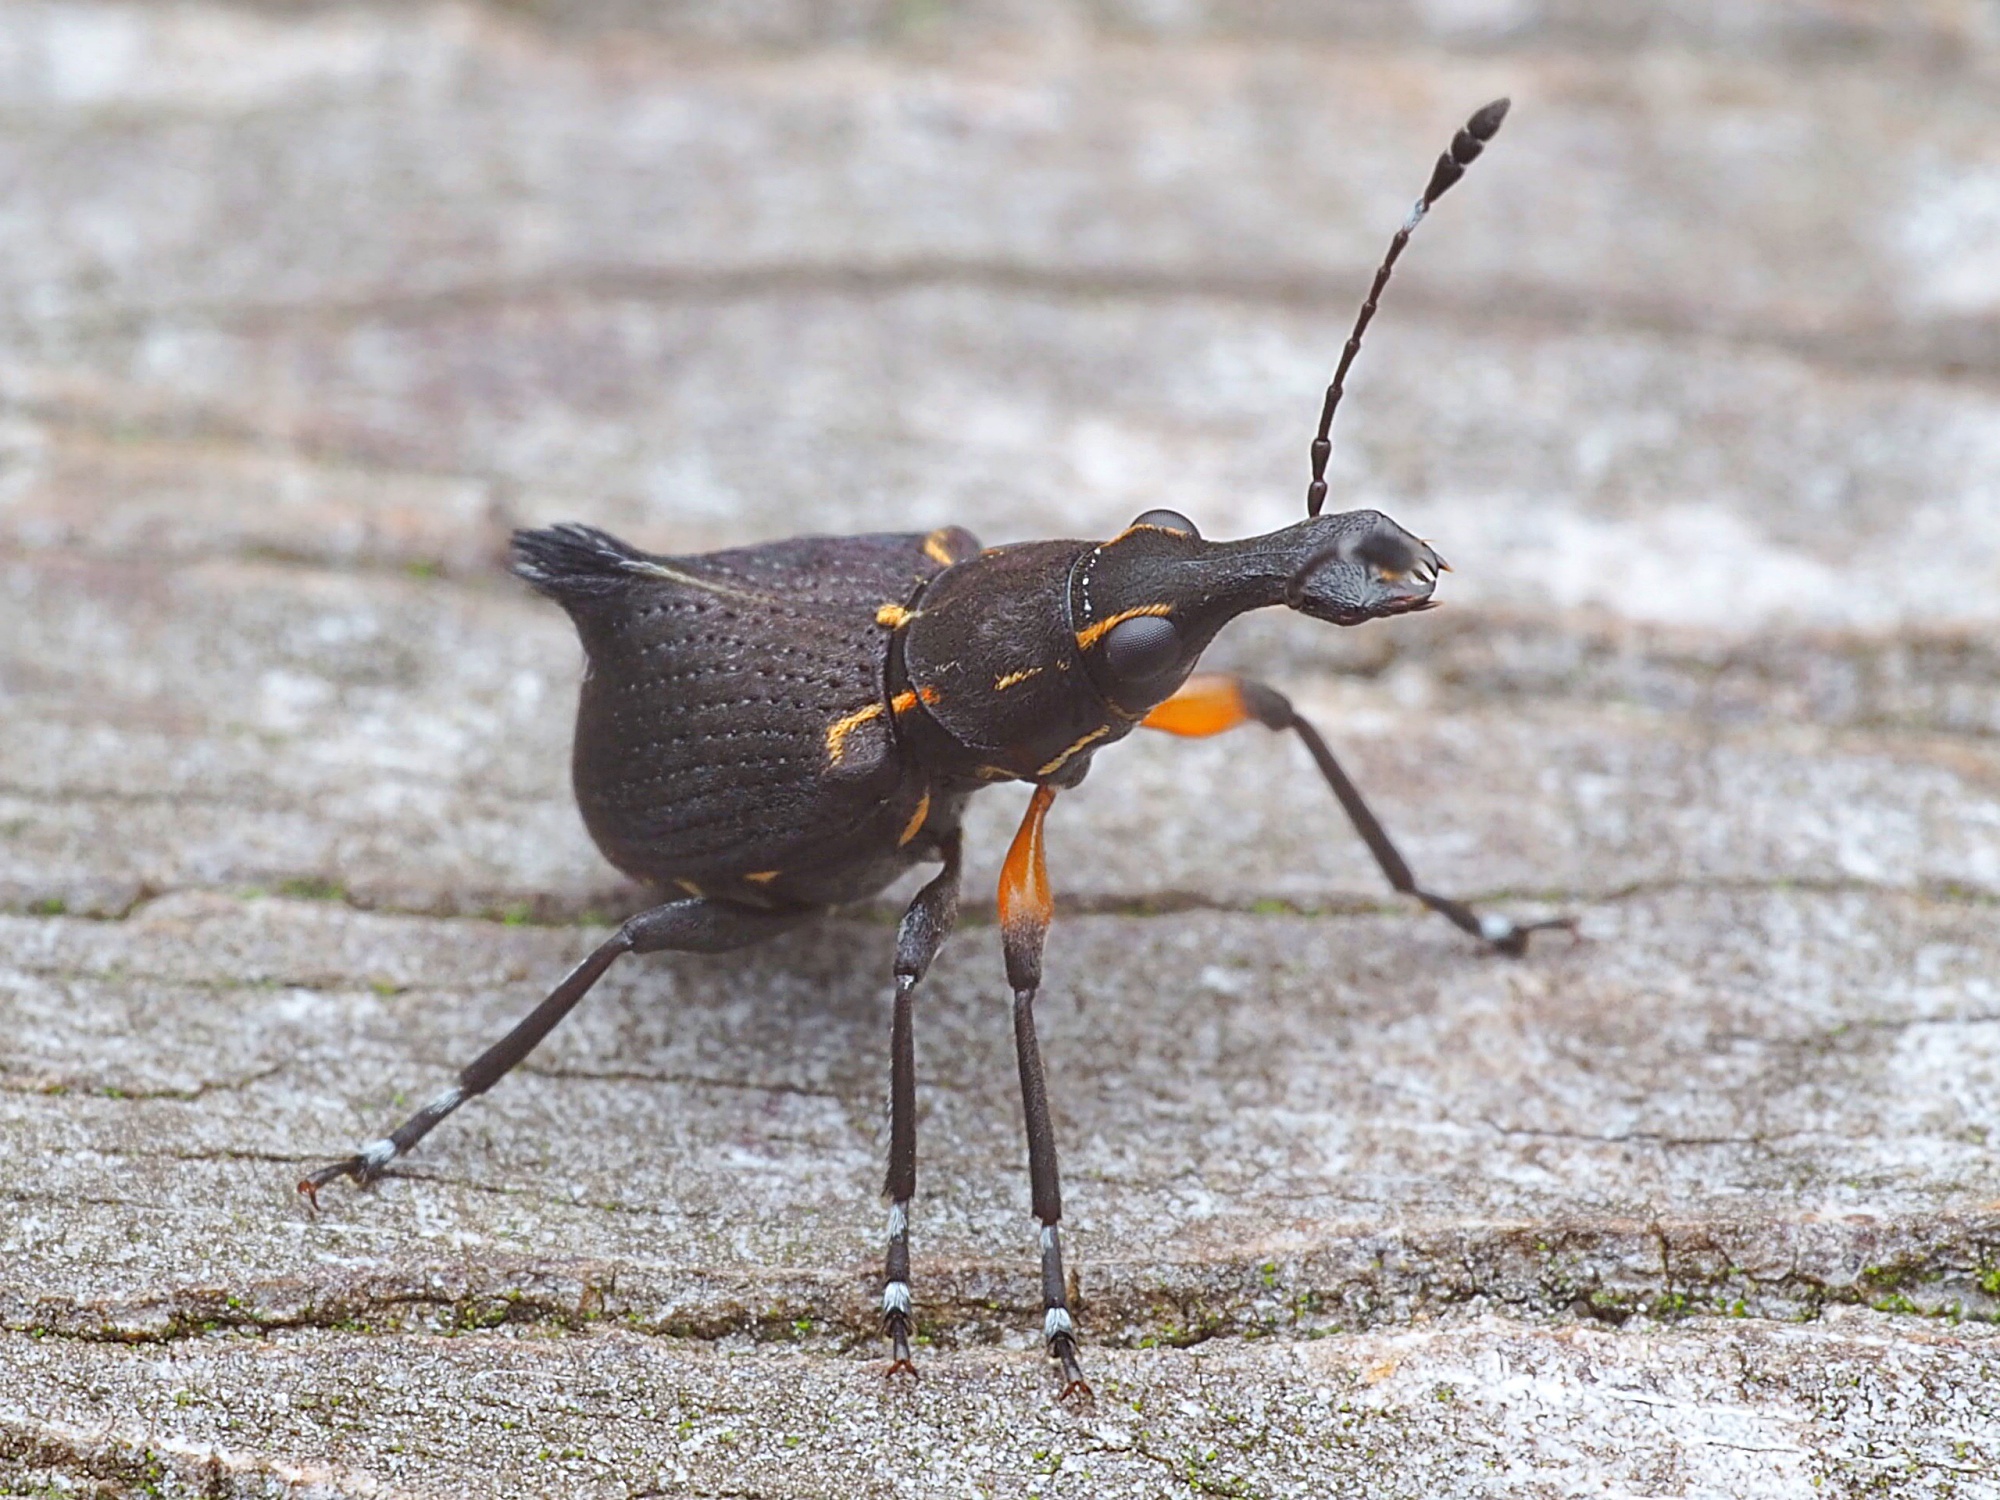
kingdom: Animalia
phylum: Arthropoda
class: Insecta
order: Coleoptera
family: Anthribidae
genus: Hoplorhaphus
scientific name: Hoplorhaphus
